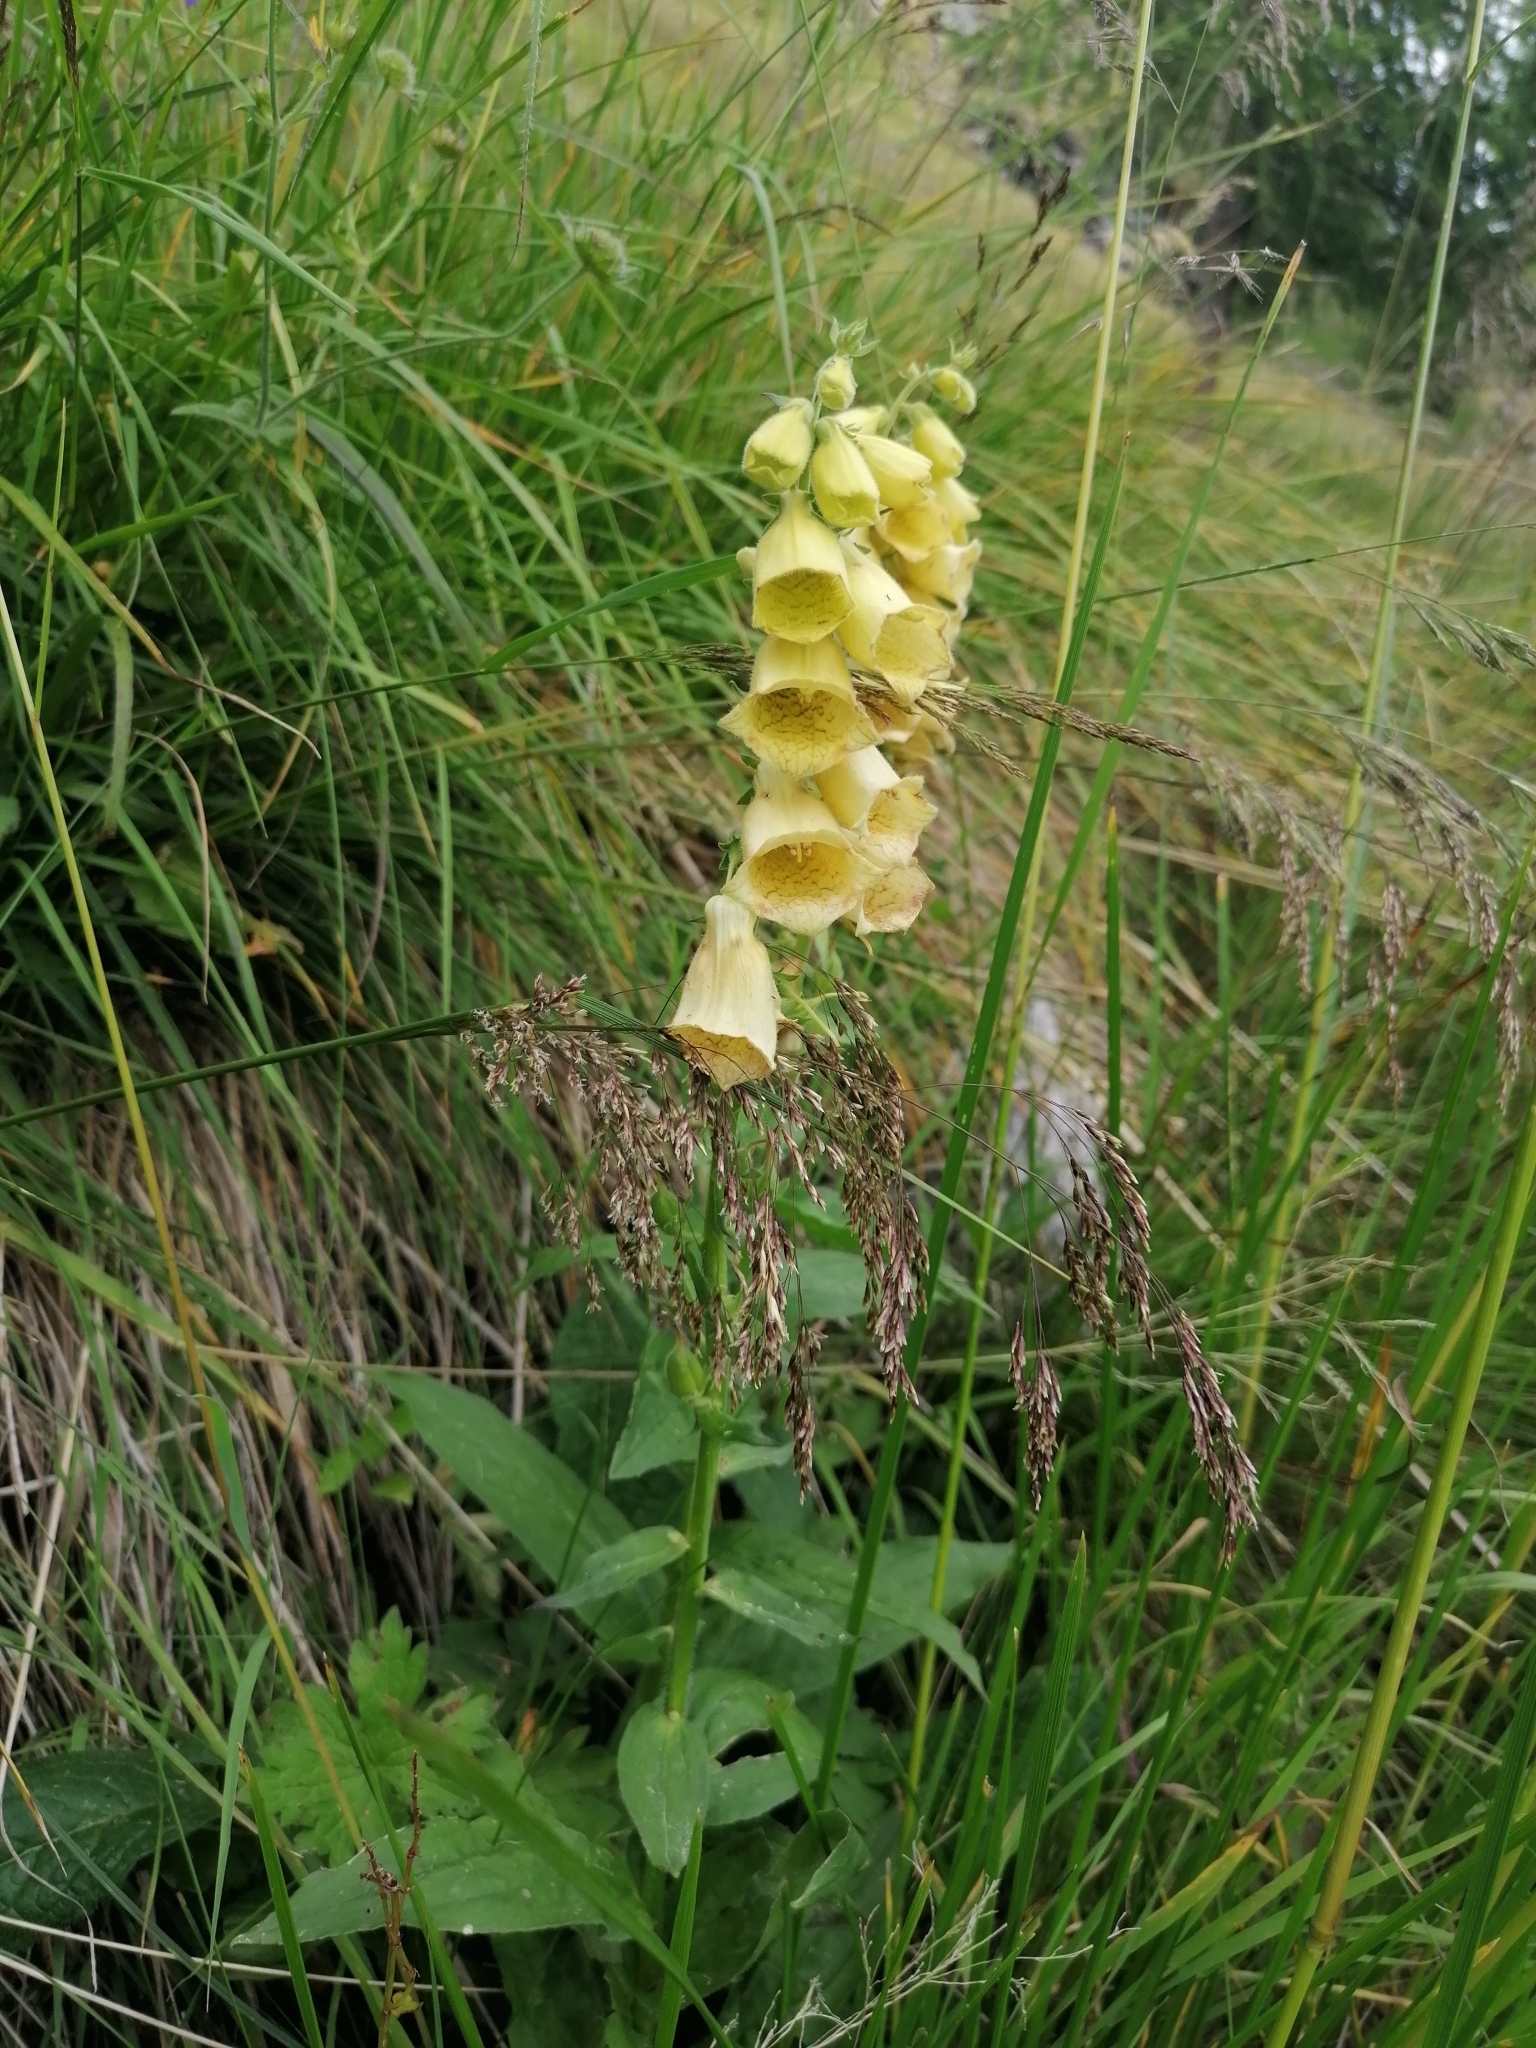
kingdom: Plantae
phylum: Tracheophyta
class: Magnoliopsida
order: Lamiales
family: Plantaginaceae
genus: Digitalis
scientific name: Digitalis grandiflora
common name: Yellow foxglove
